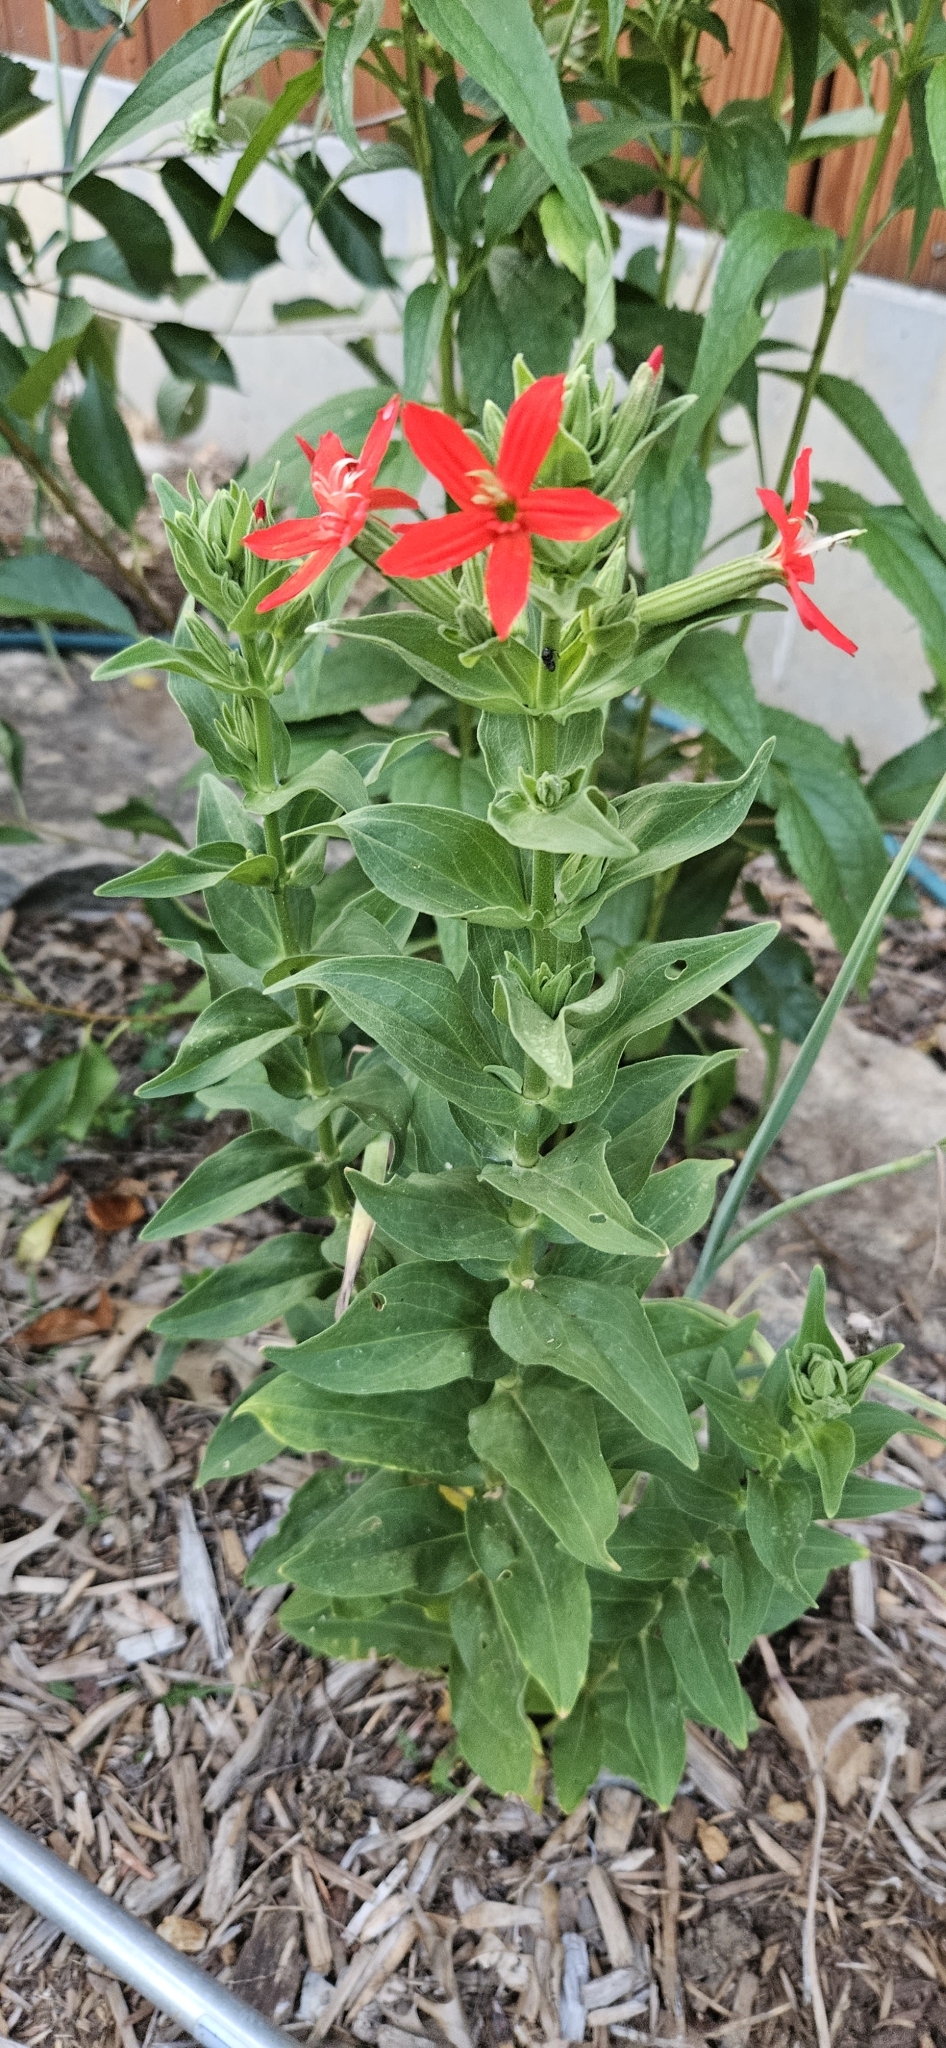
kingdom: Plantae
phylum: Tracheophyta
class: Magnoliopsida
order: Caryophyllales
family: Caryophyllaceae
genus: Silene
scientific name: Silene regia
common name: Royal catchfly
